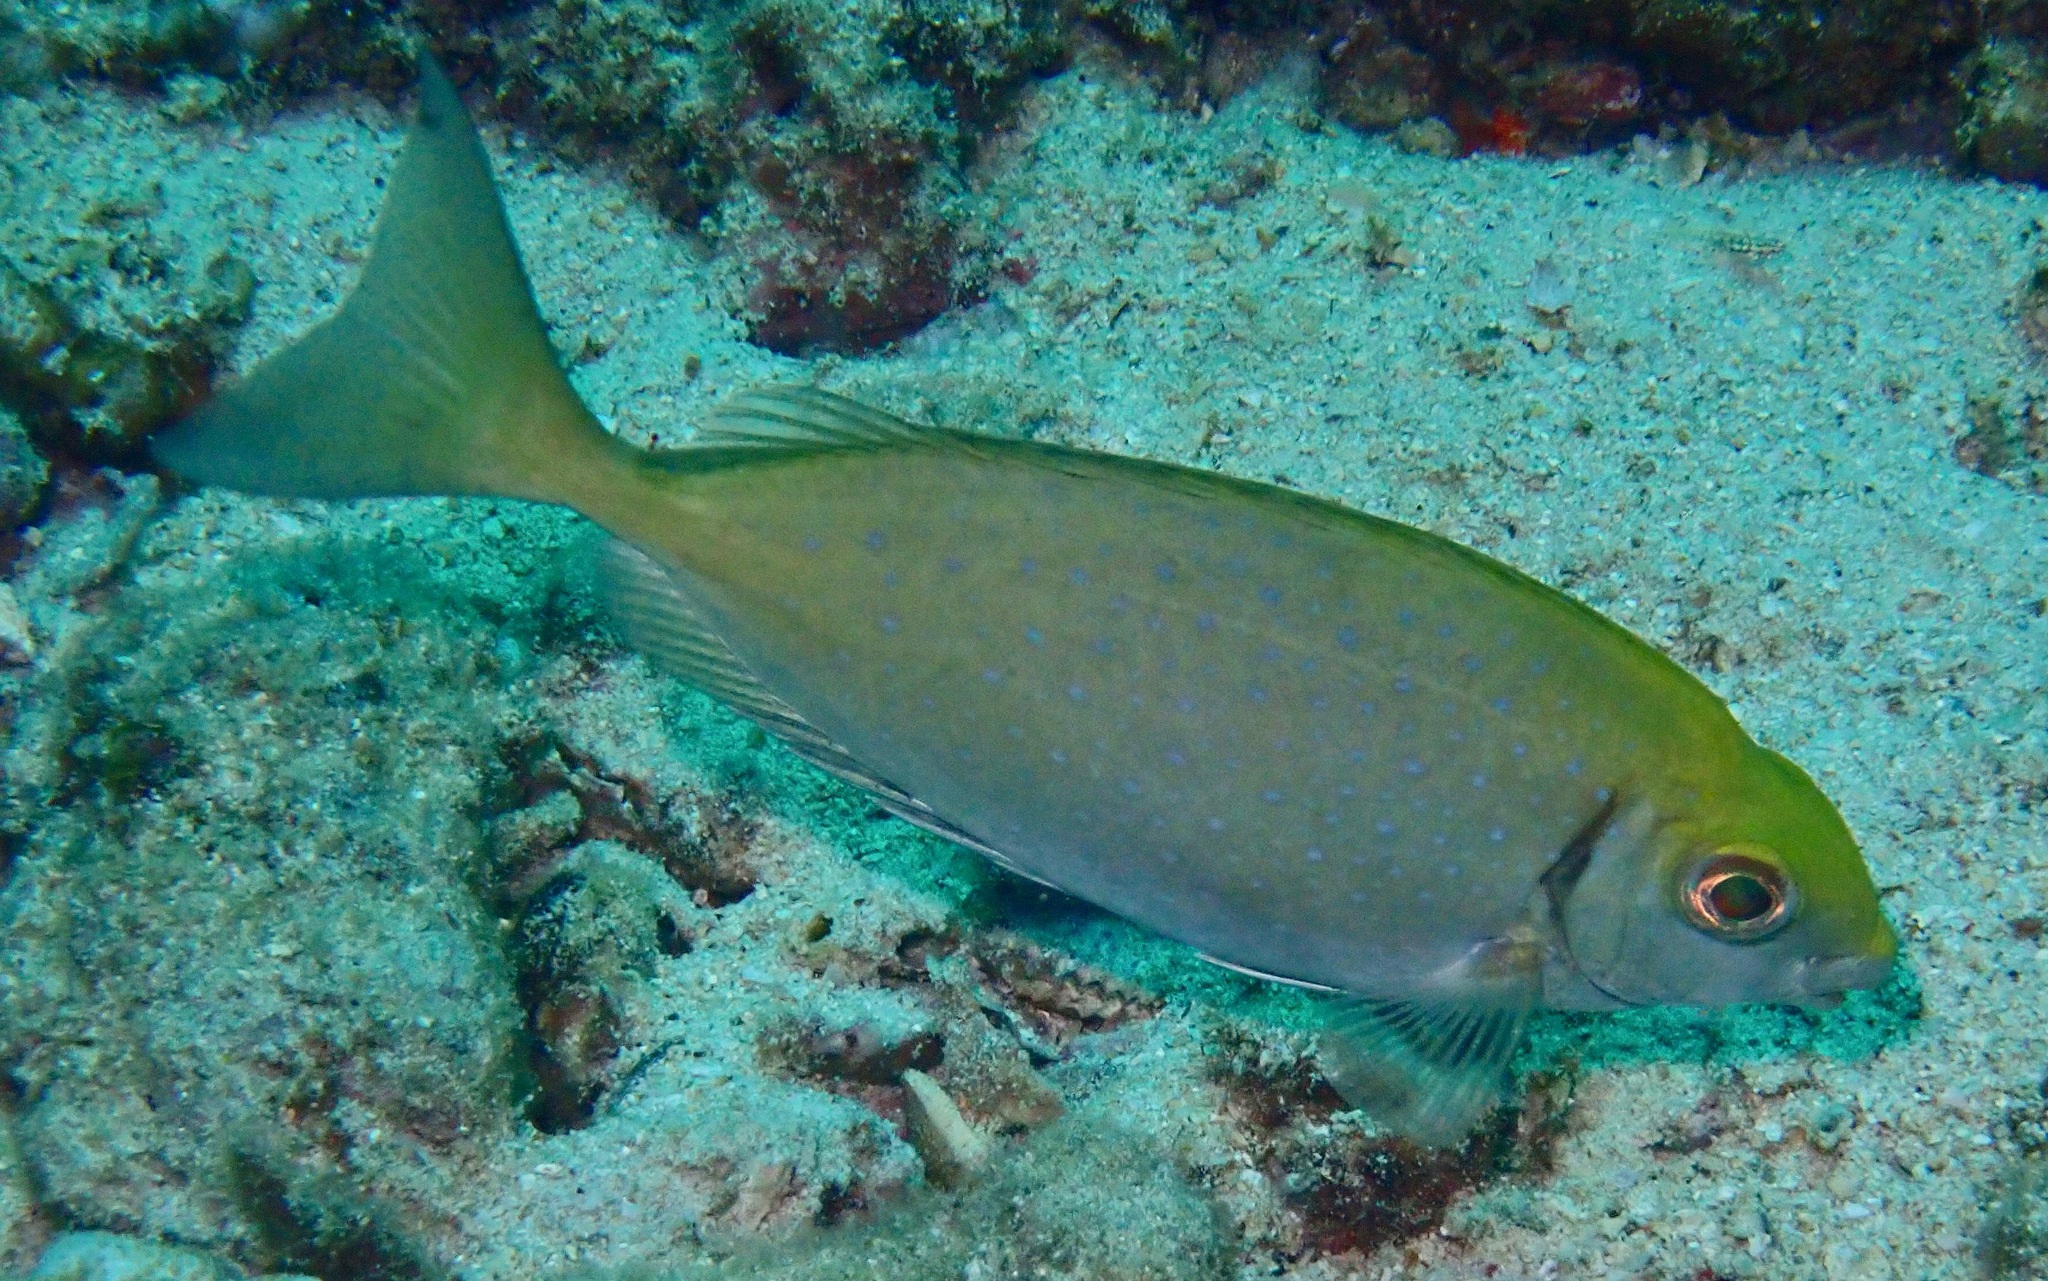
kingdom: Animalia
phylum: Chordata
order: Perciformes
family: Siganidae
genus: Siganus
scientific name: Siganus sutor
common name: Shoemaker spinefoot
